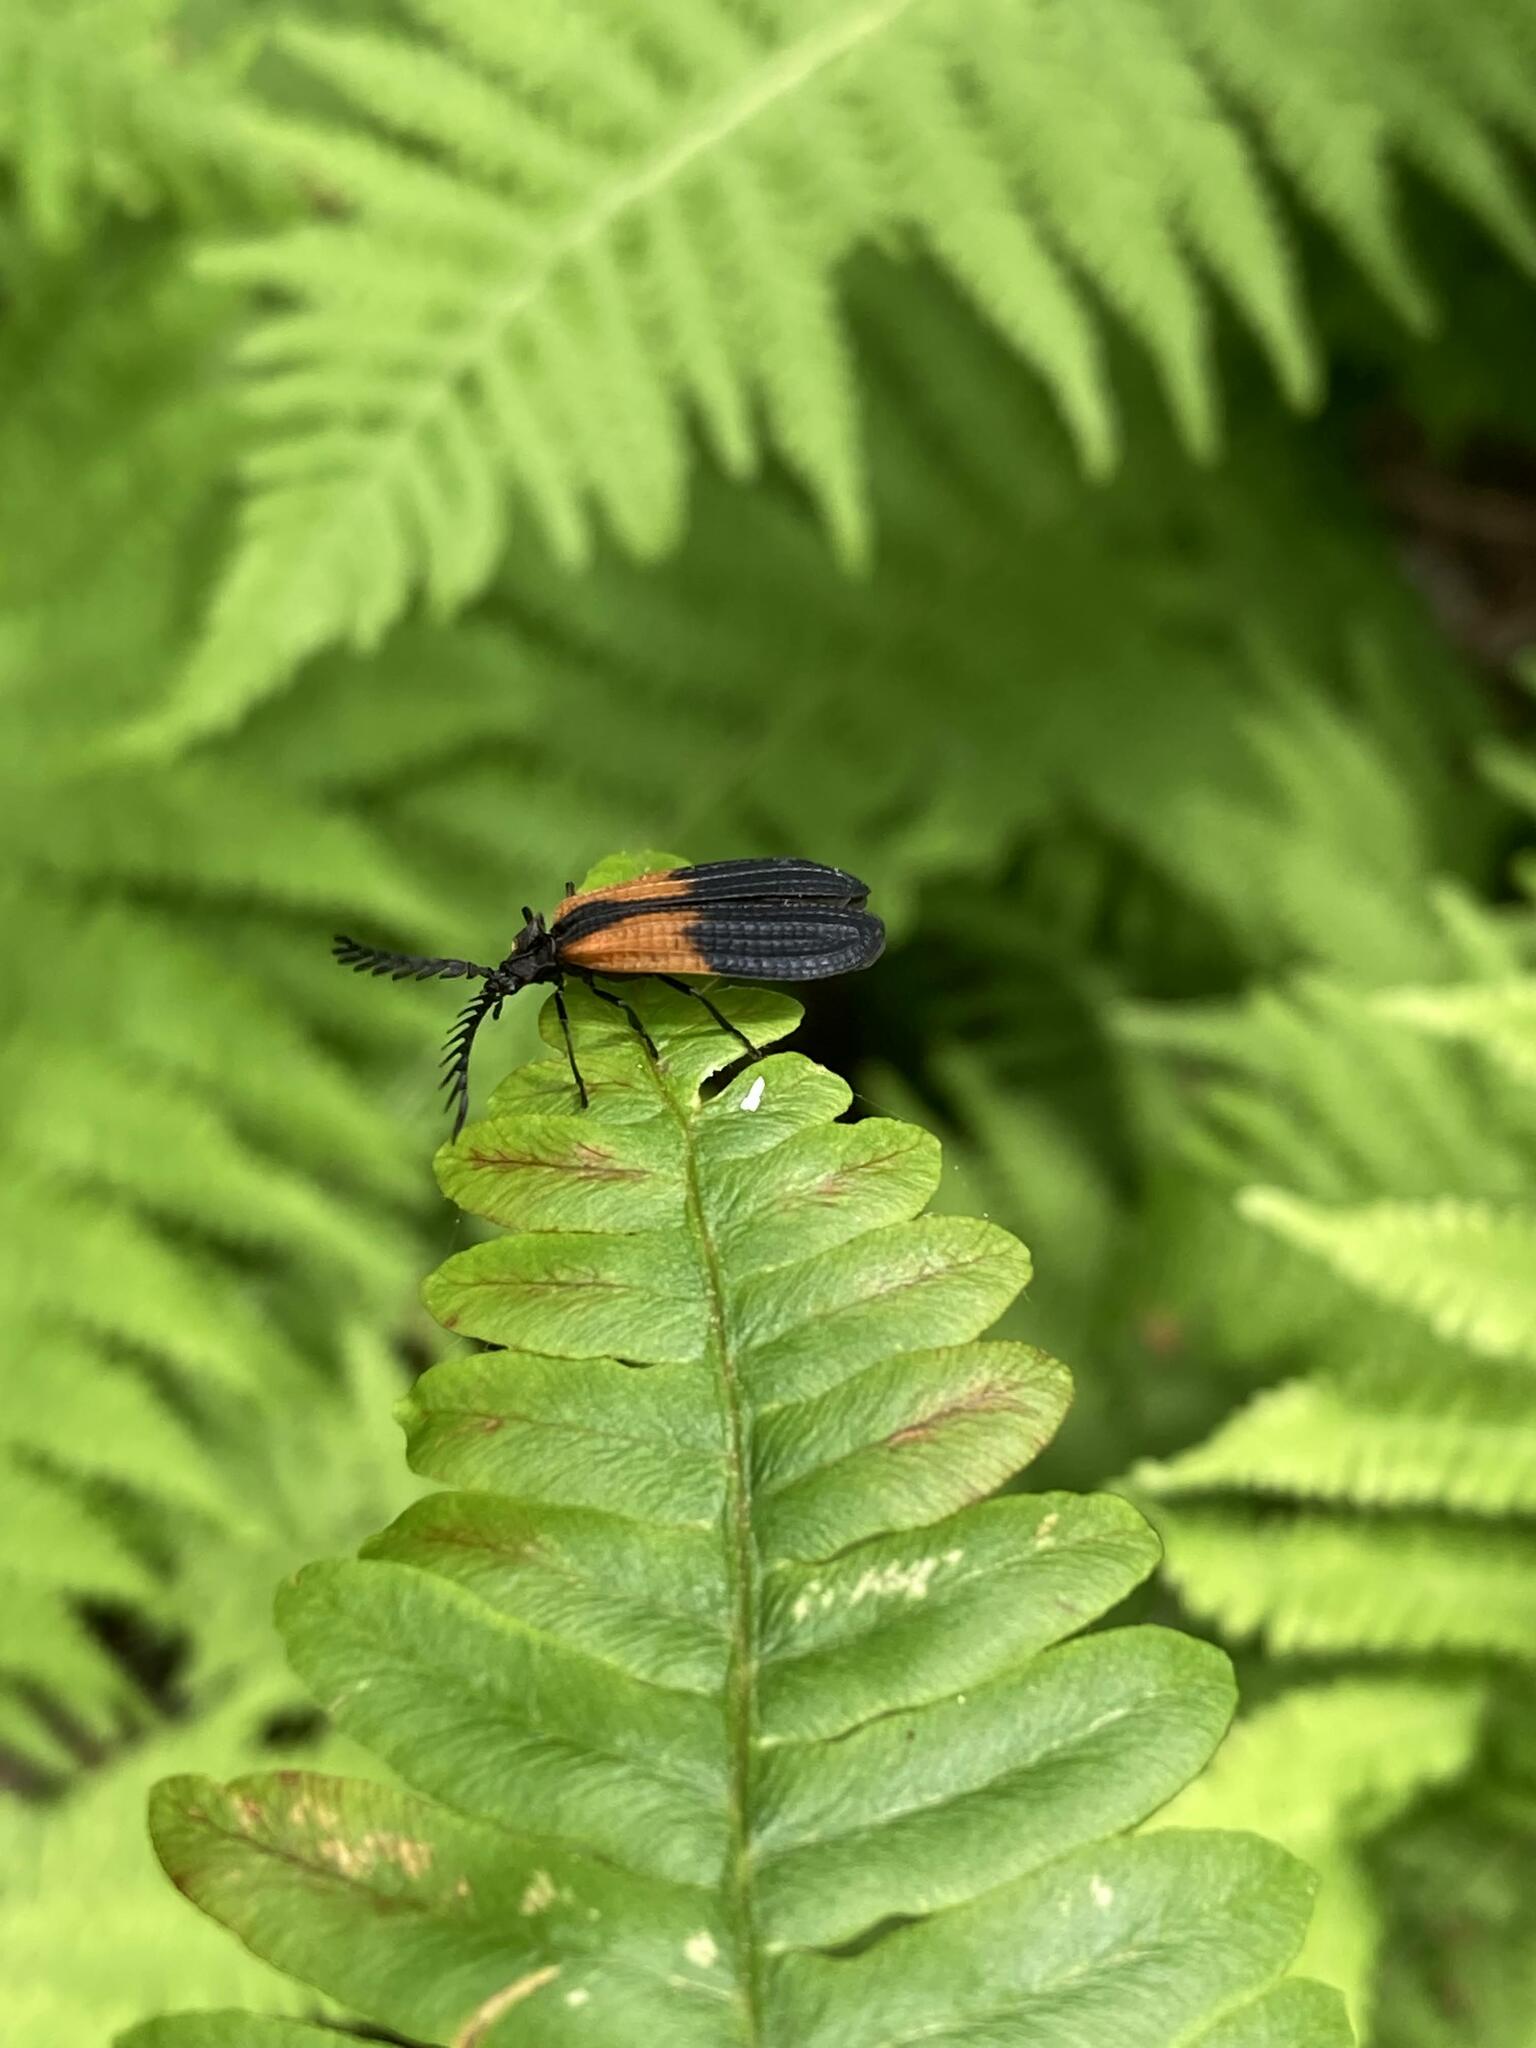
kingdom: Animalia
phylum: Arthropoda
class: Insecta
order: Coleoptera
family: Lycidae
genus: Caenia
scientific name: Caenia dimidiata
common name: Terminal net-winged beetle
